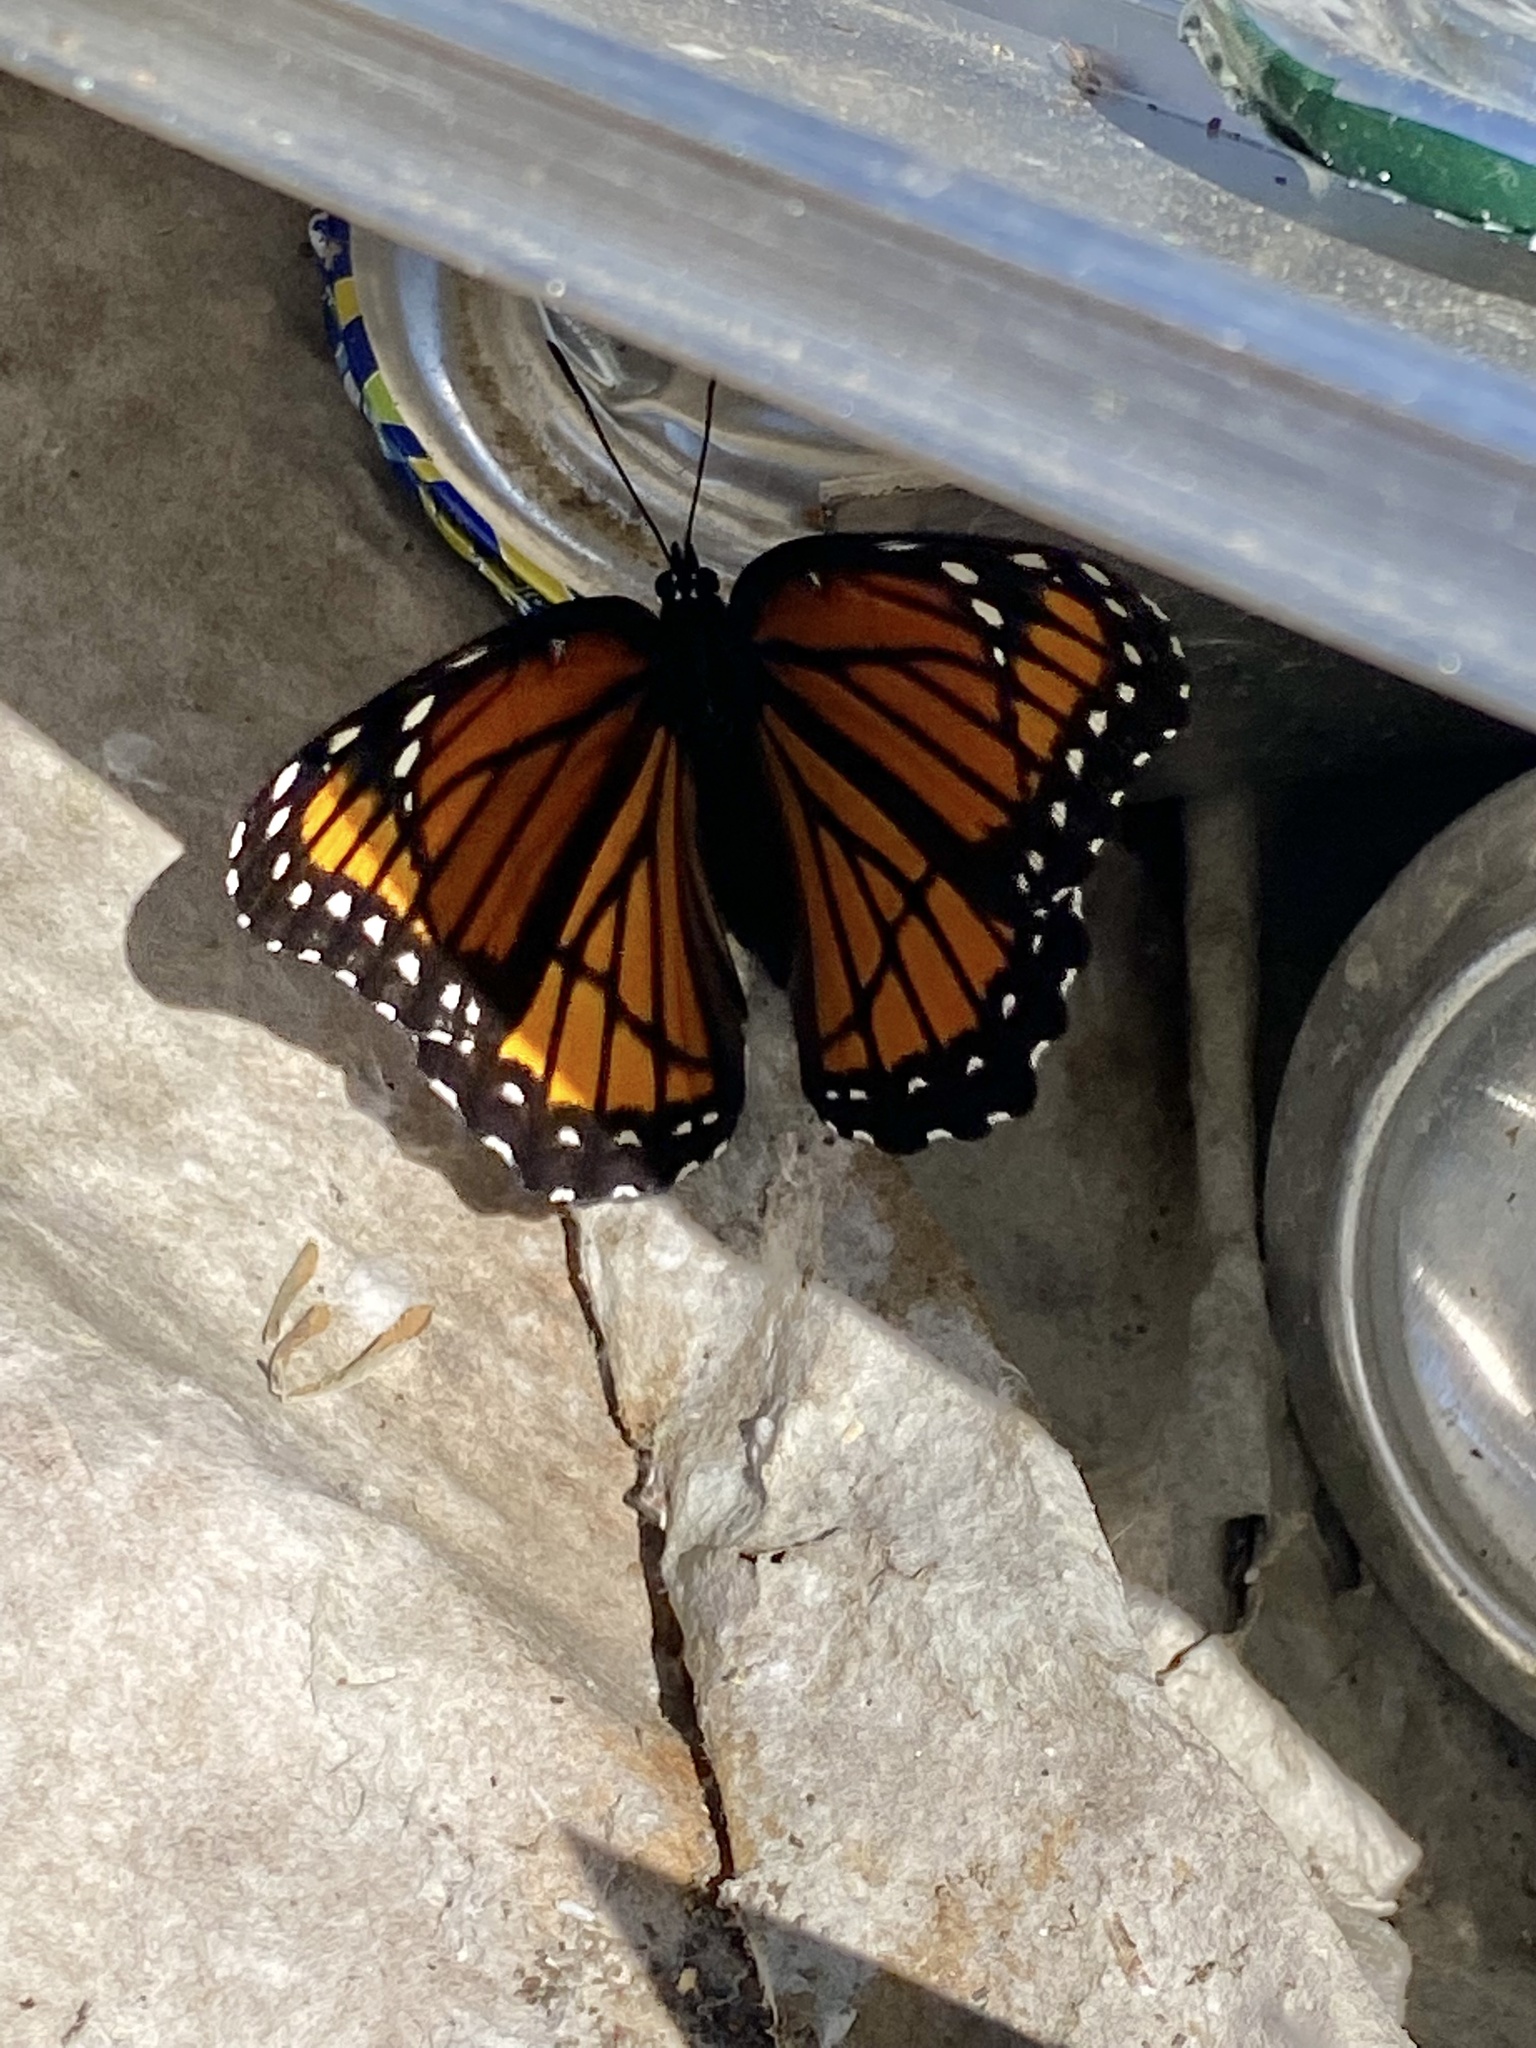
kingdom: Animalia
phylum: Arthropoda
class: Insecta
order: Lepidoptera
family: Nymphalidae
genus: Limenitis
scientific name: Limenitis archippus
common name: Viceroy
